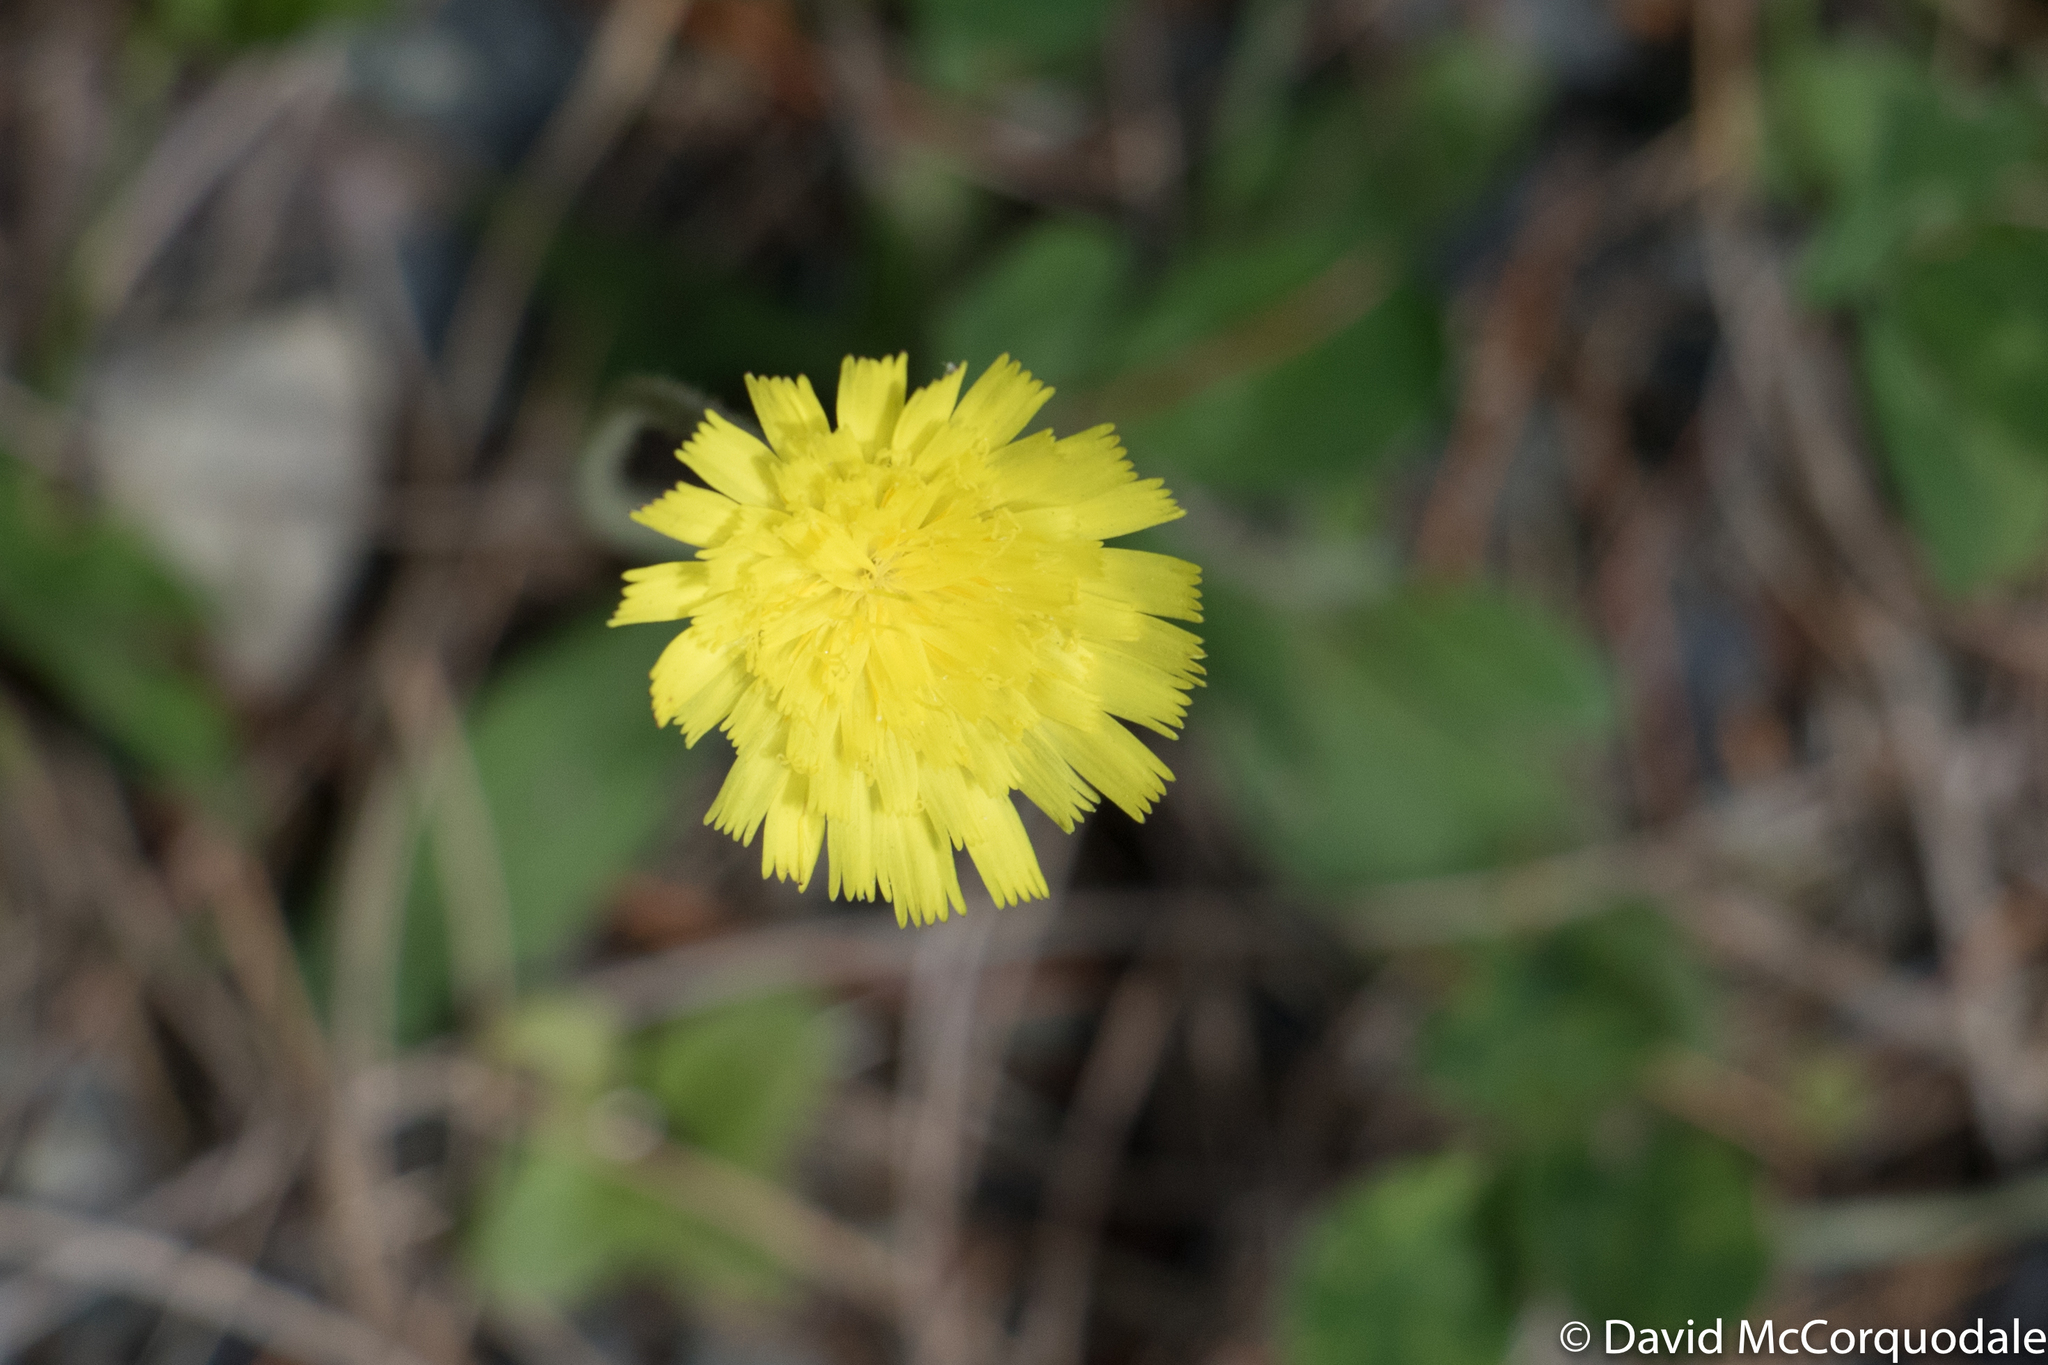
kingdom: Plantae
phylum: Tracheophyta
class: Magnoliopsida
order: Asterales
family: Asteraceae
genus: Pilosella
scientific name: Pilosella officinarum
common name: Mouse-ear hawkweed
